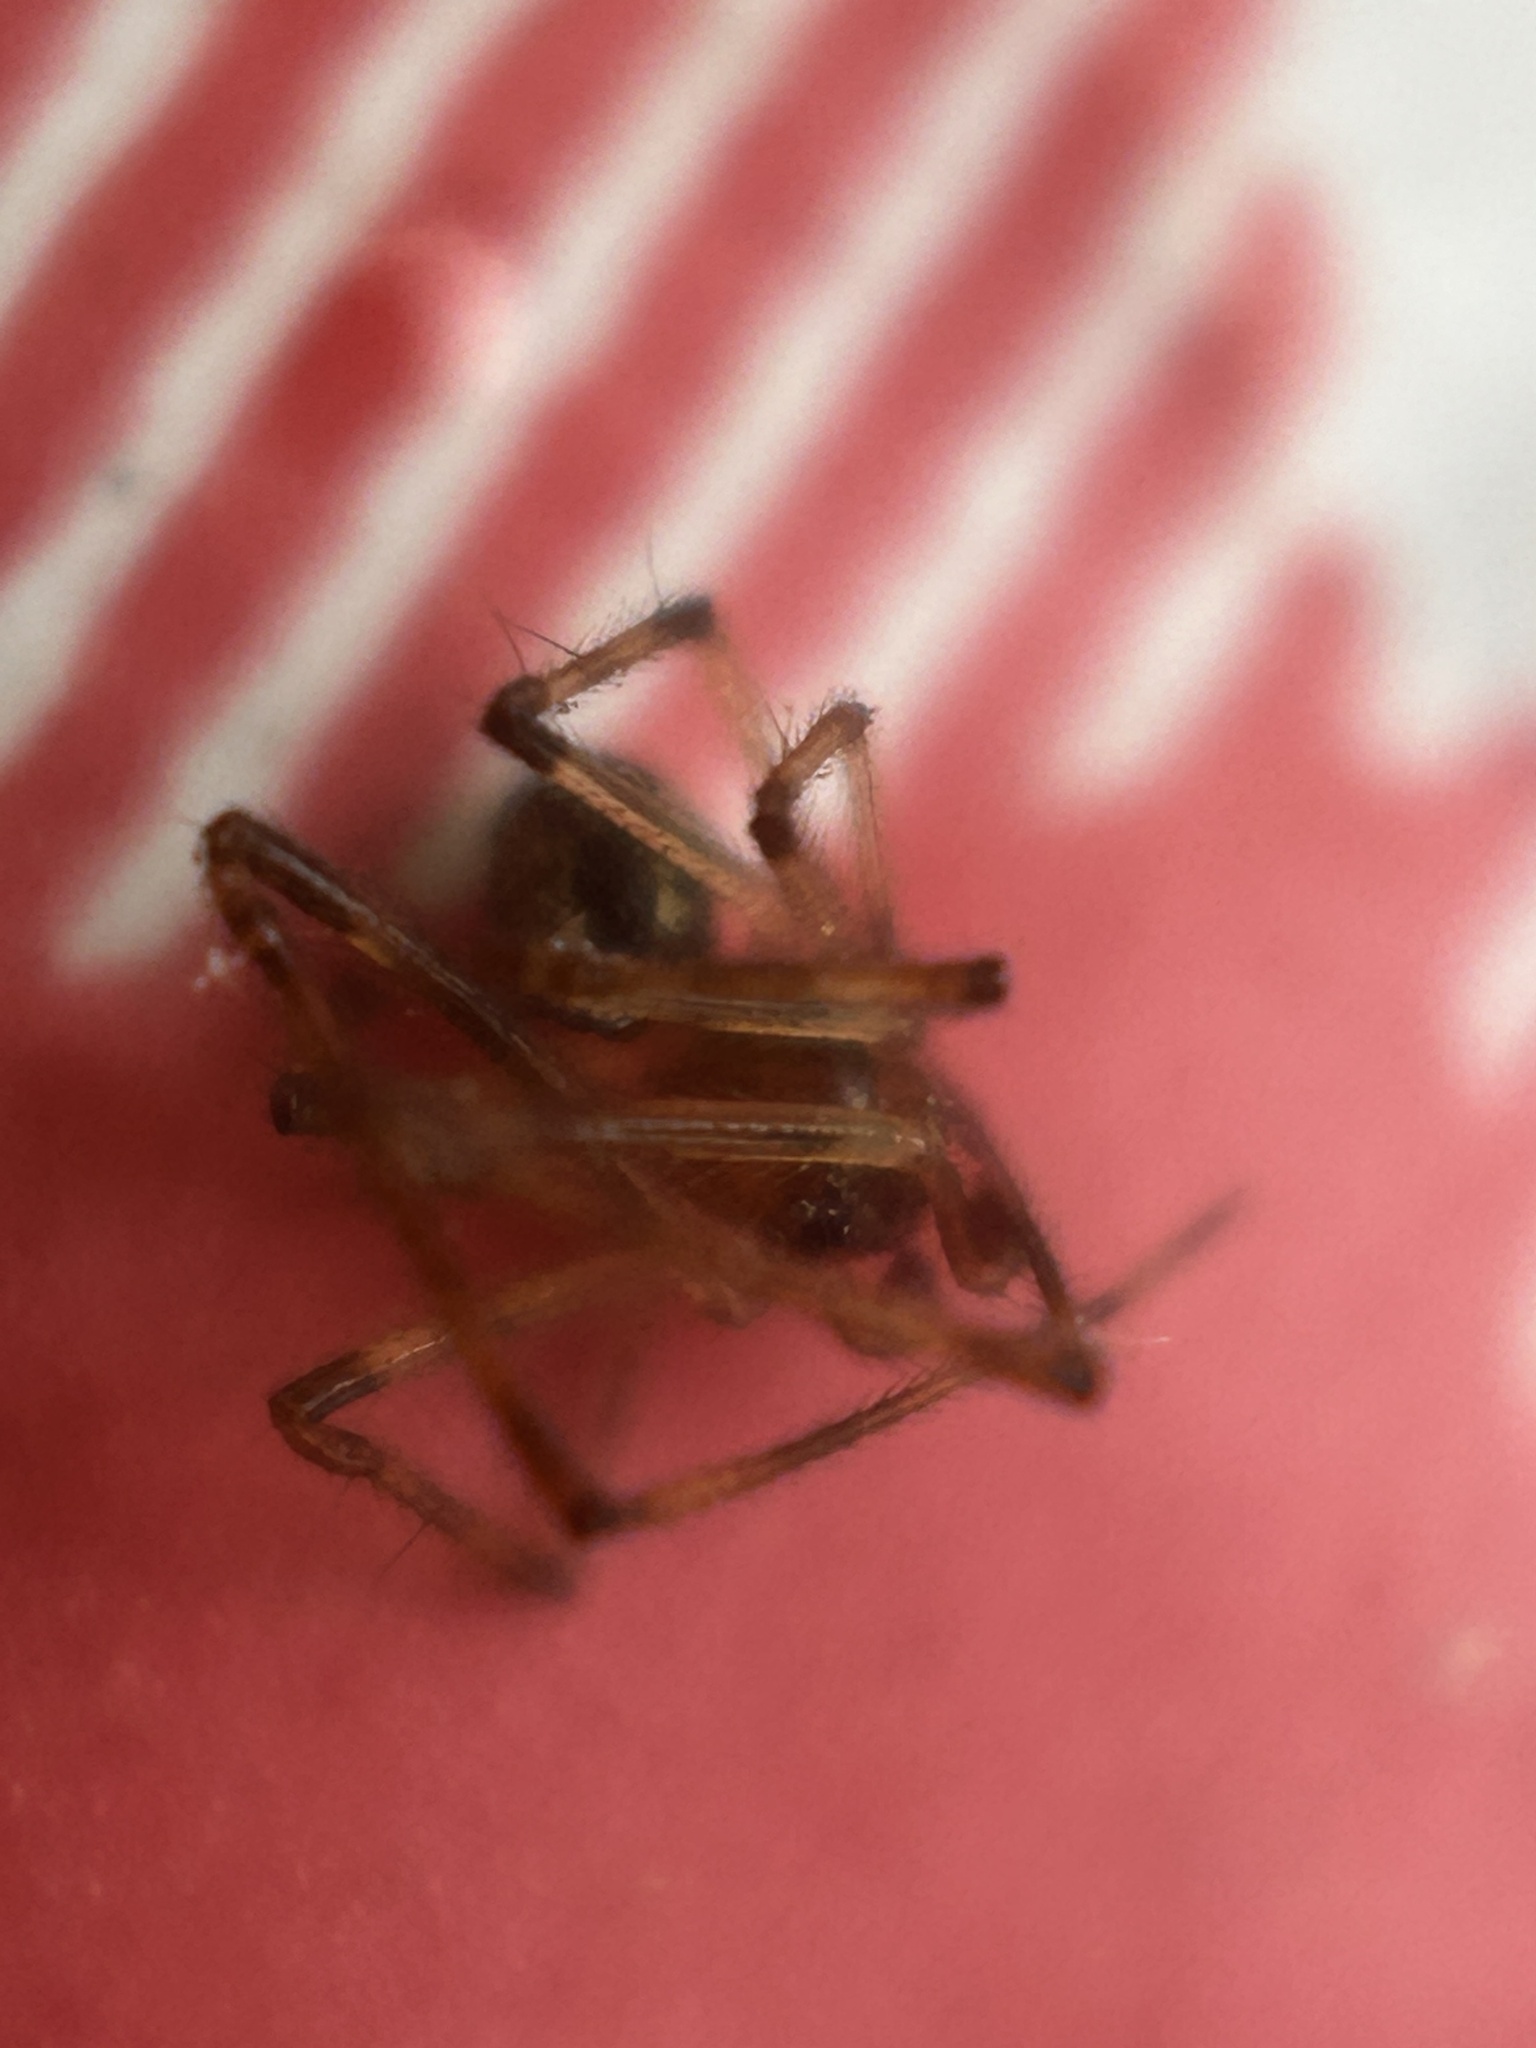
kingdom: Animalia
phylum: Arthropoda
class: Arachnida
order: Araneae
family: Theridiidae
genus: Yunohamella
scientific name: Yunohamella lyrica
